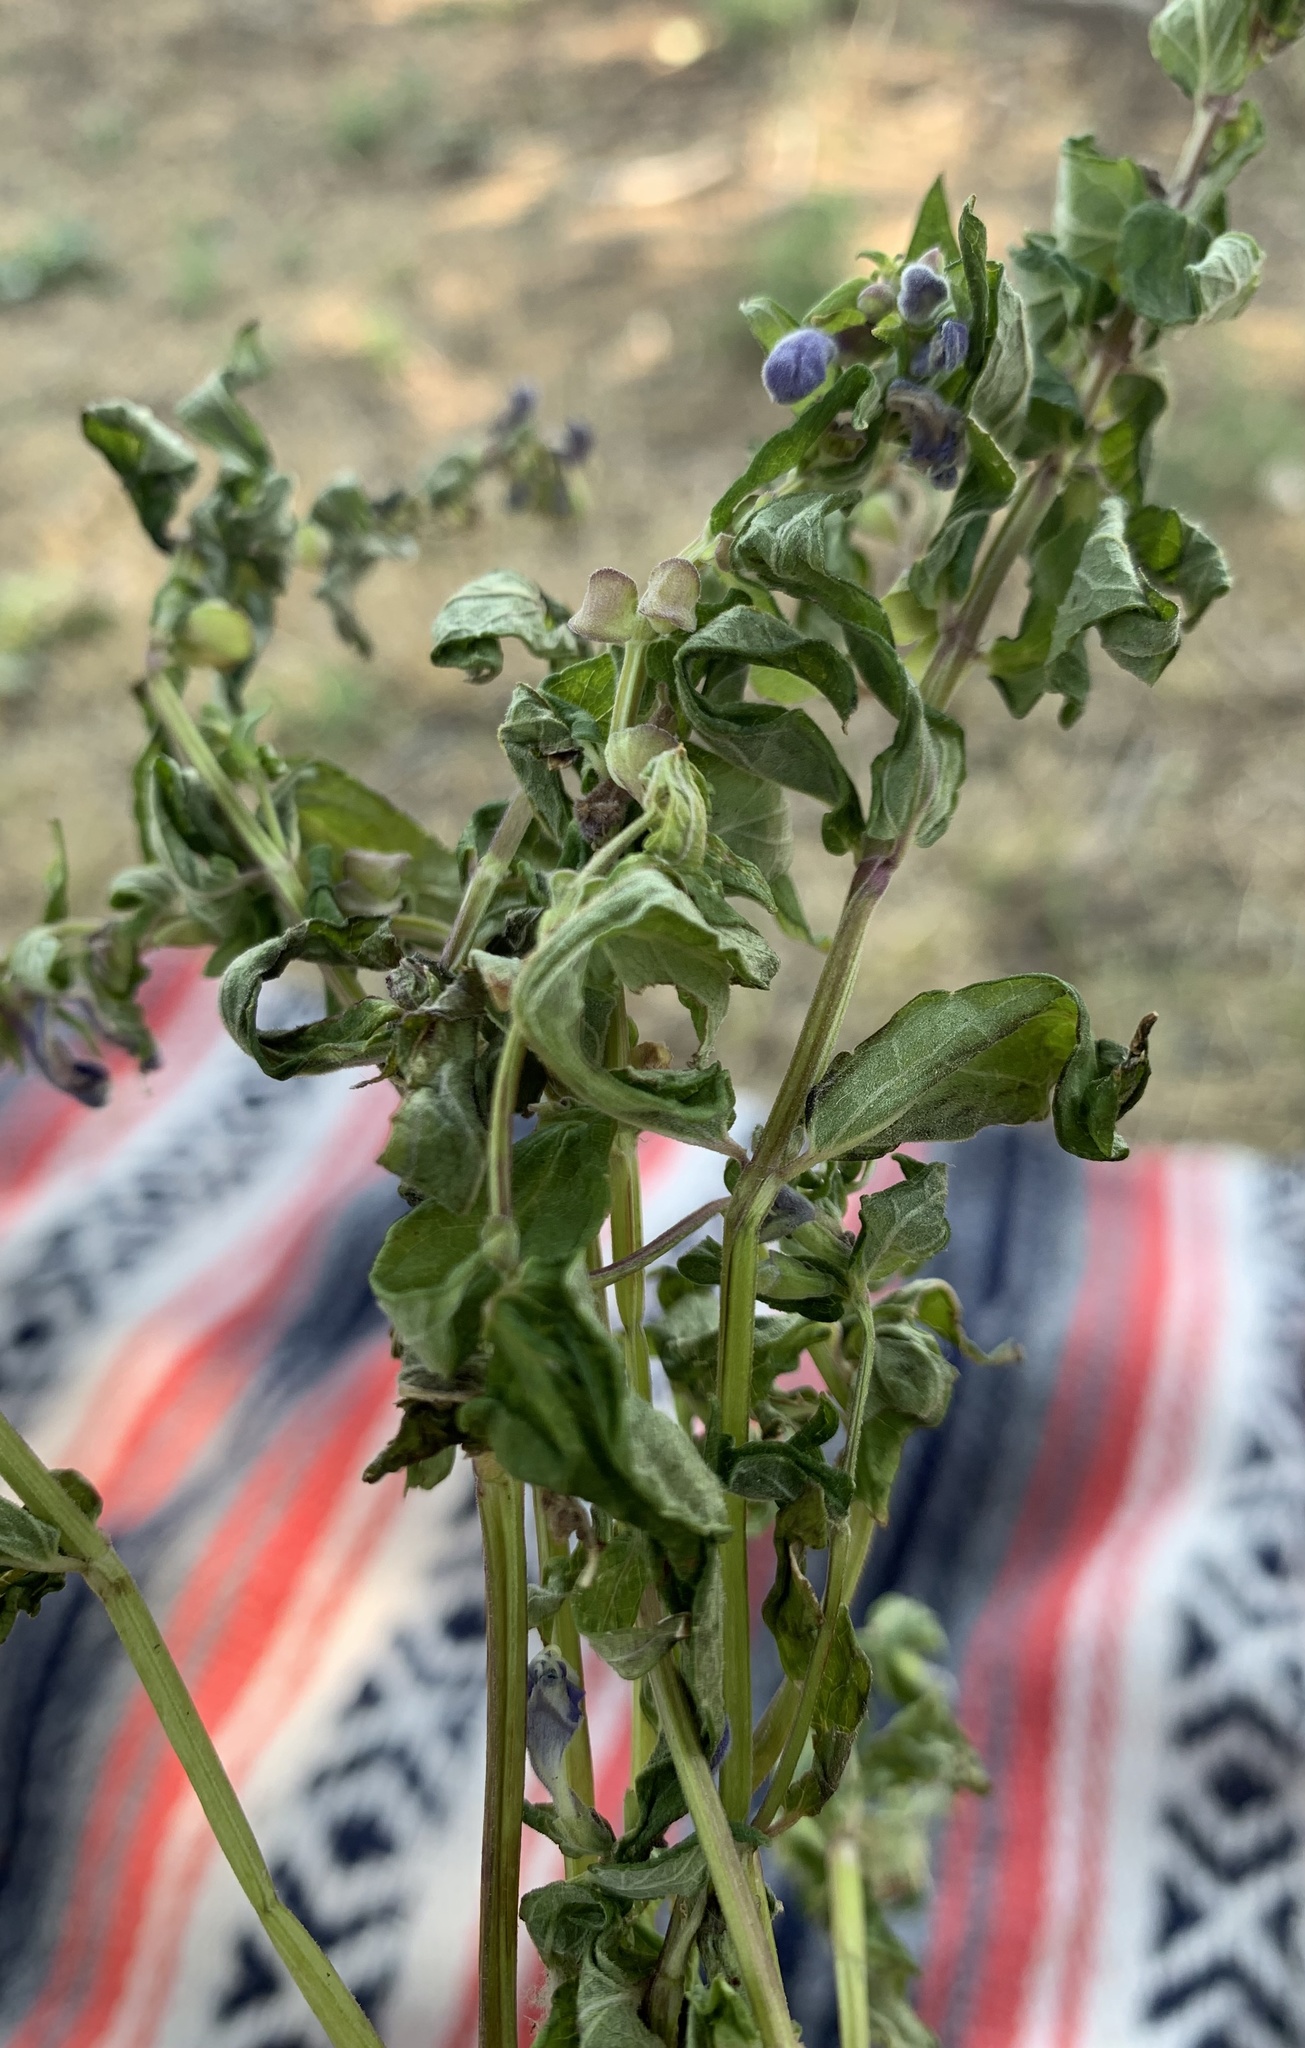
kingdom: Plantae
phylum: Tracheophyta
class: Magnoliopsida
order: Lamiales
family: Lamiaceae
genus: Scutellaria
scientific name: Scutellaria galericulata
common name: Skullcap
